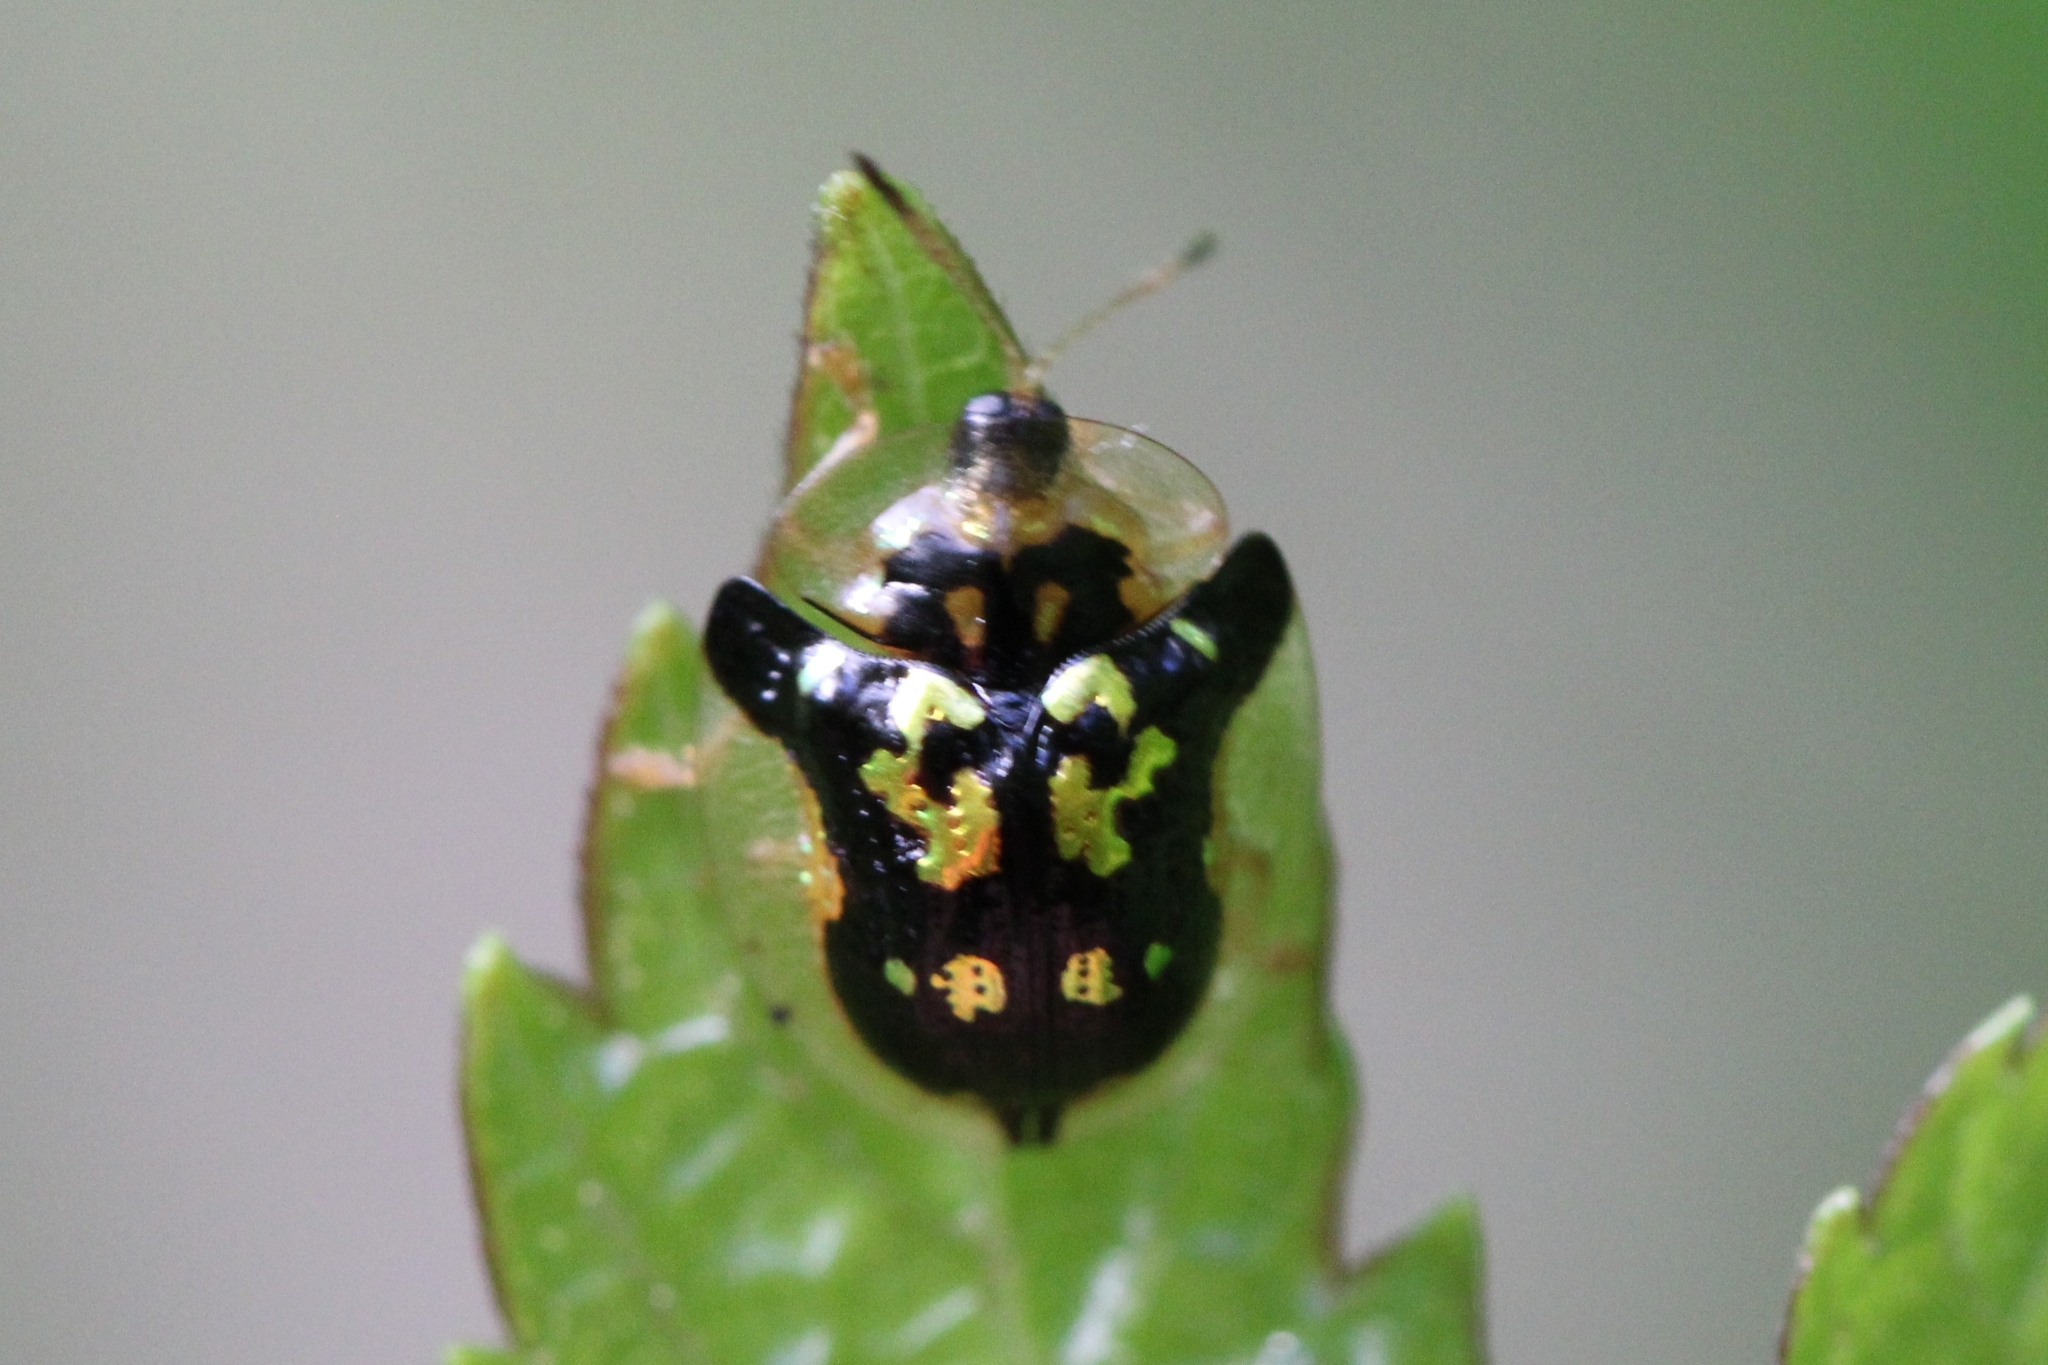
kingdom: Animalia
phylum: Arthropoda
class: Insecta
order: Coleoptera
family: Chrysomelidae
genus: Deloyala
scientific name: Deloyala guttata
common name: Mottled tortoise beetle
